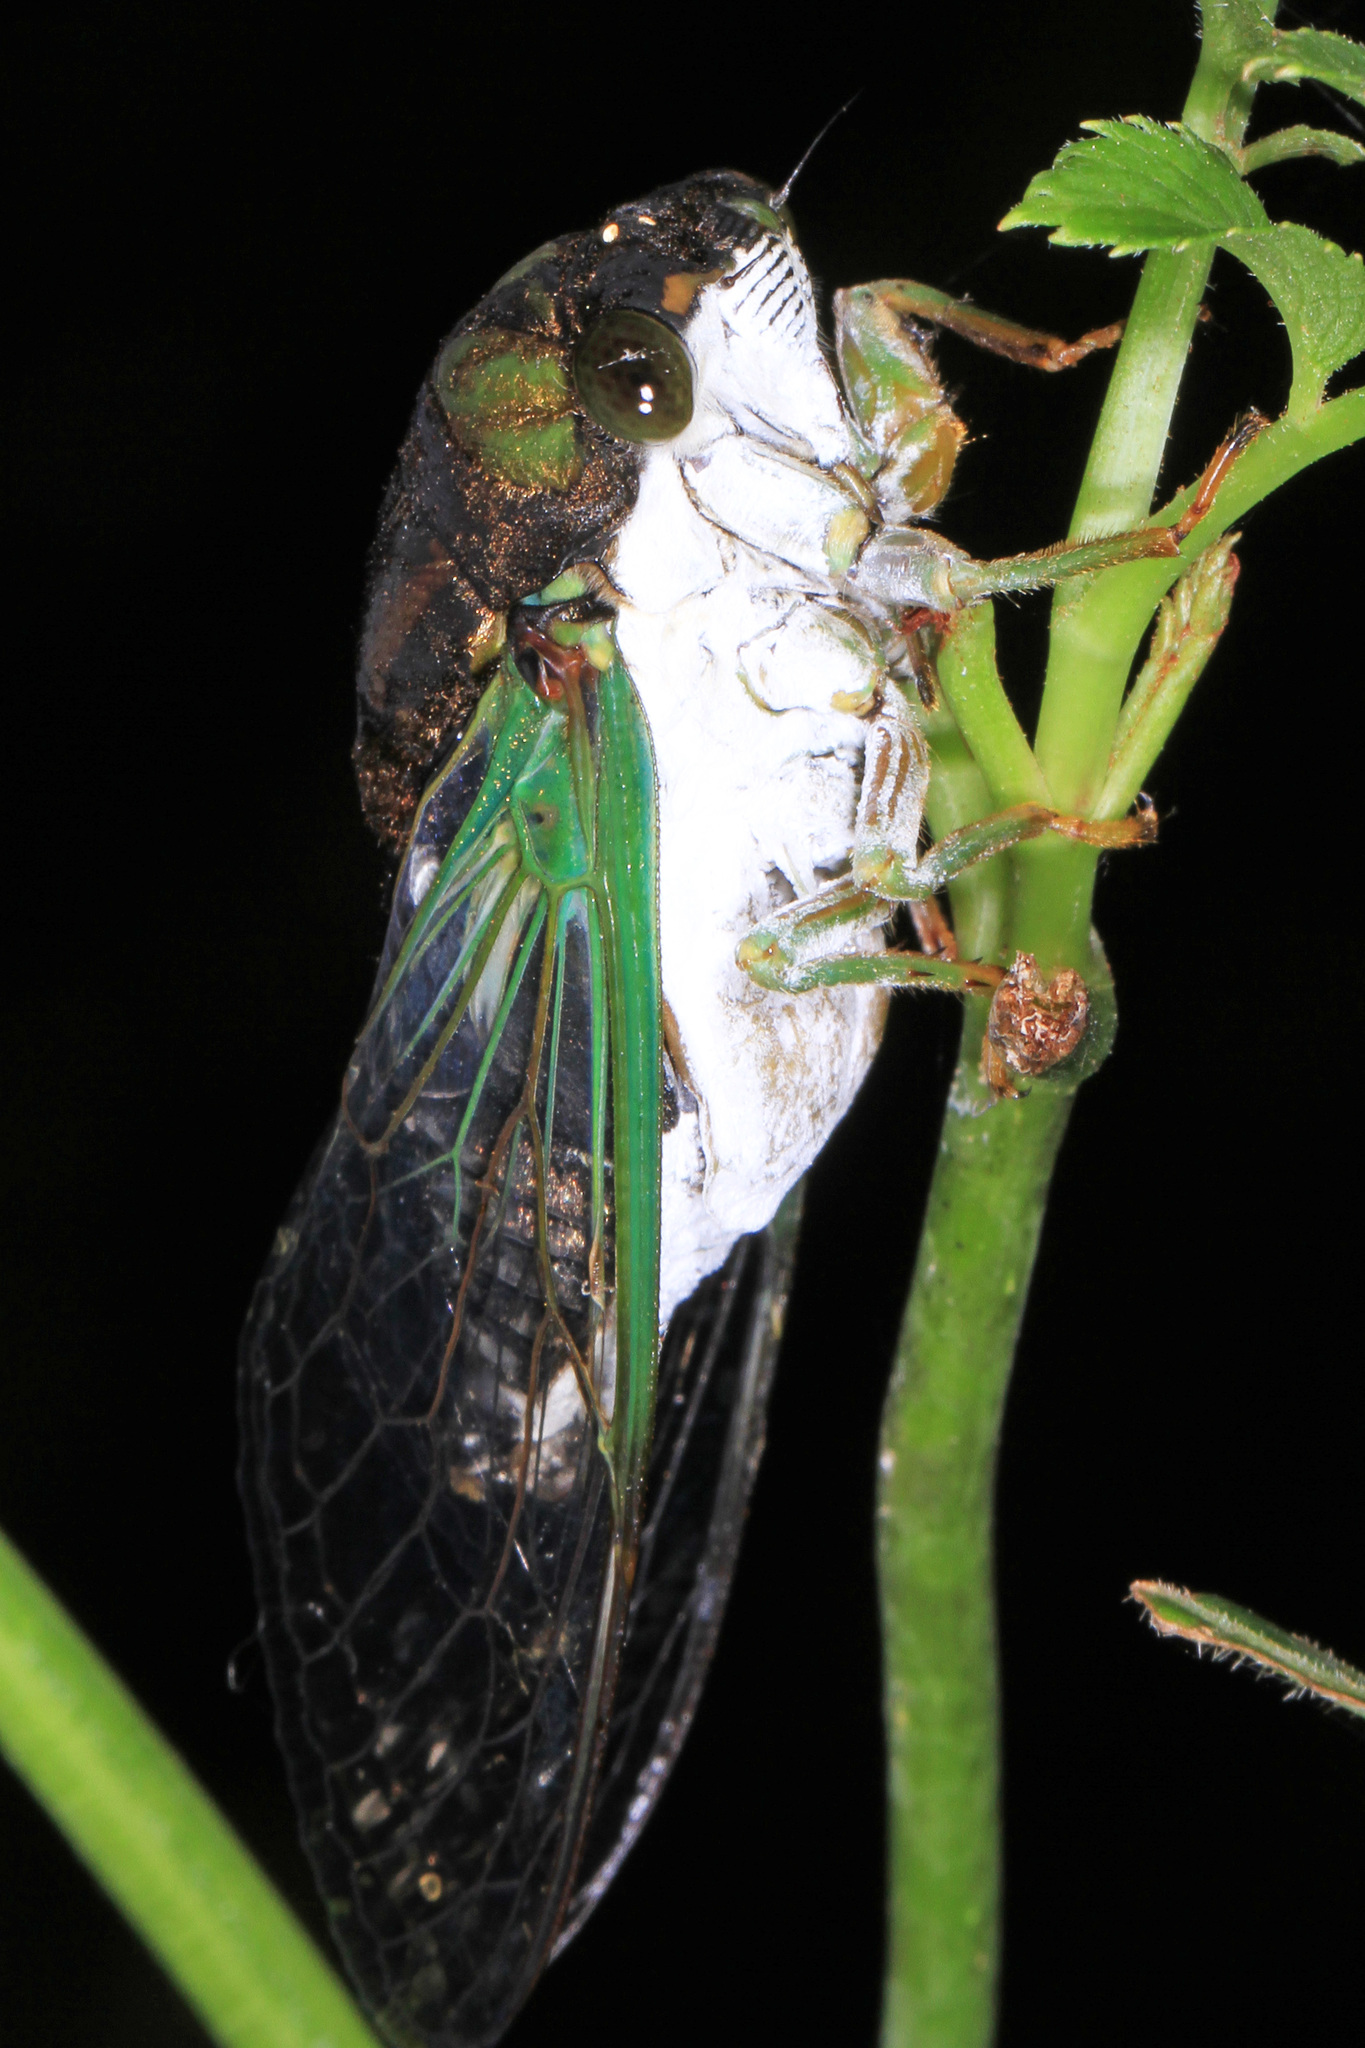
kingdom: Animalia
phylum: Arthropoda
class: Insecta
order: Hemiptera
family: Cicadidae
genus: Neotibicen
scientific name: Neotibicen tibicen
